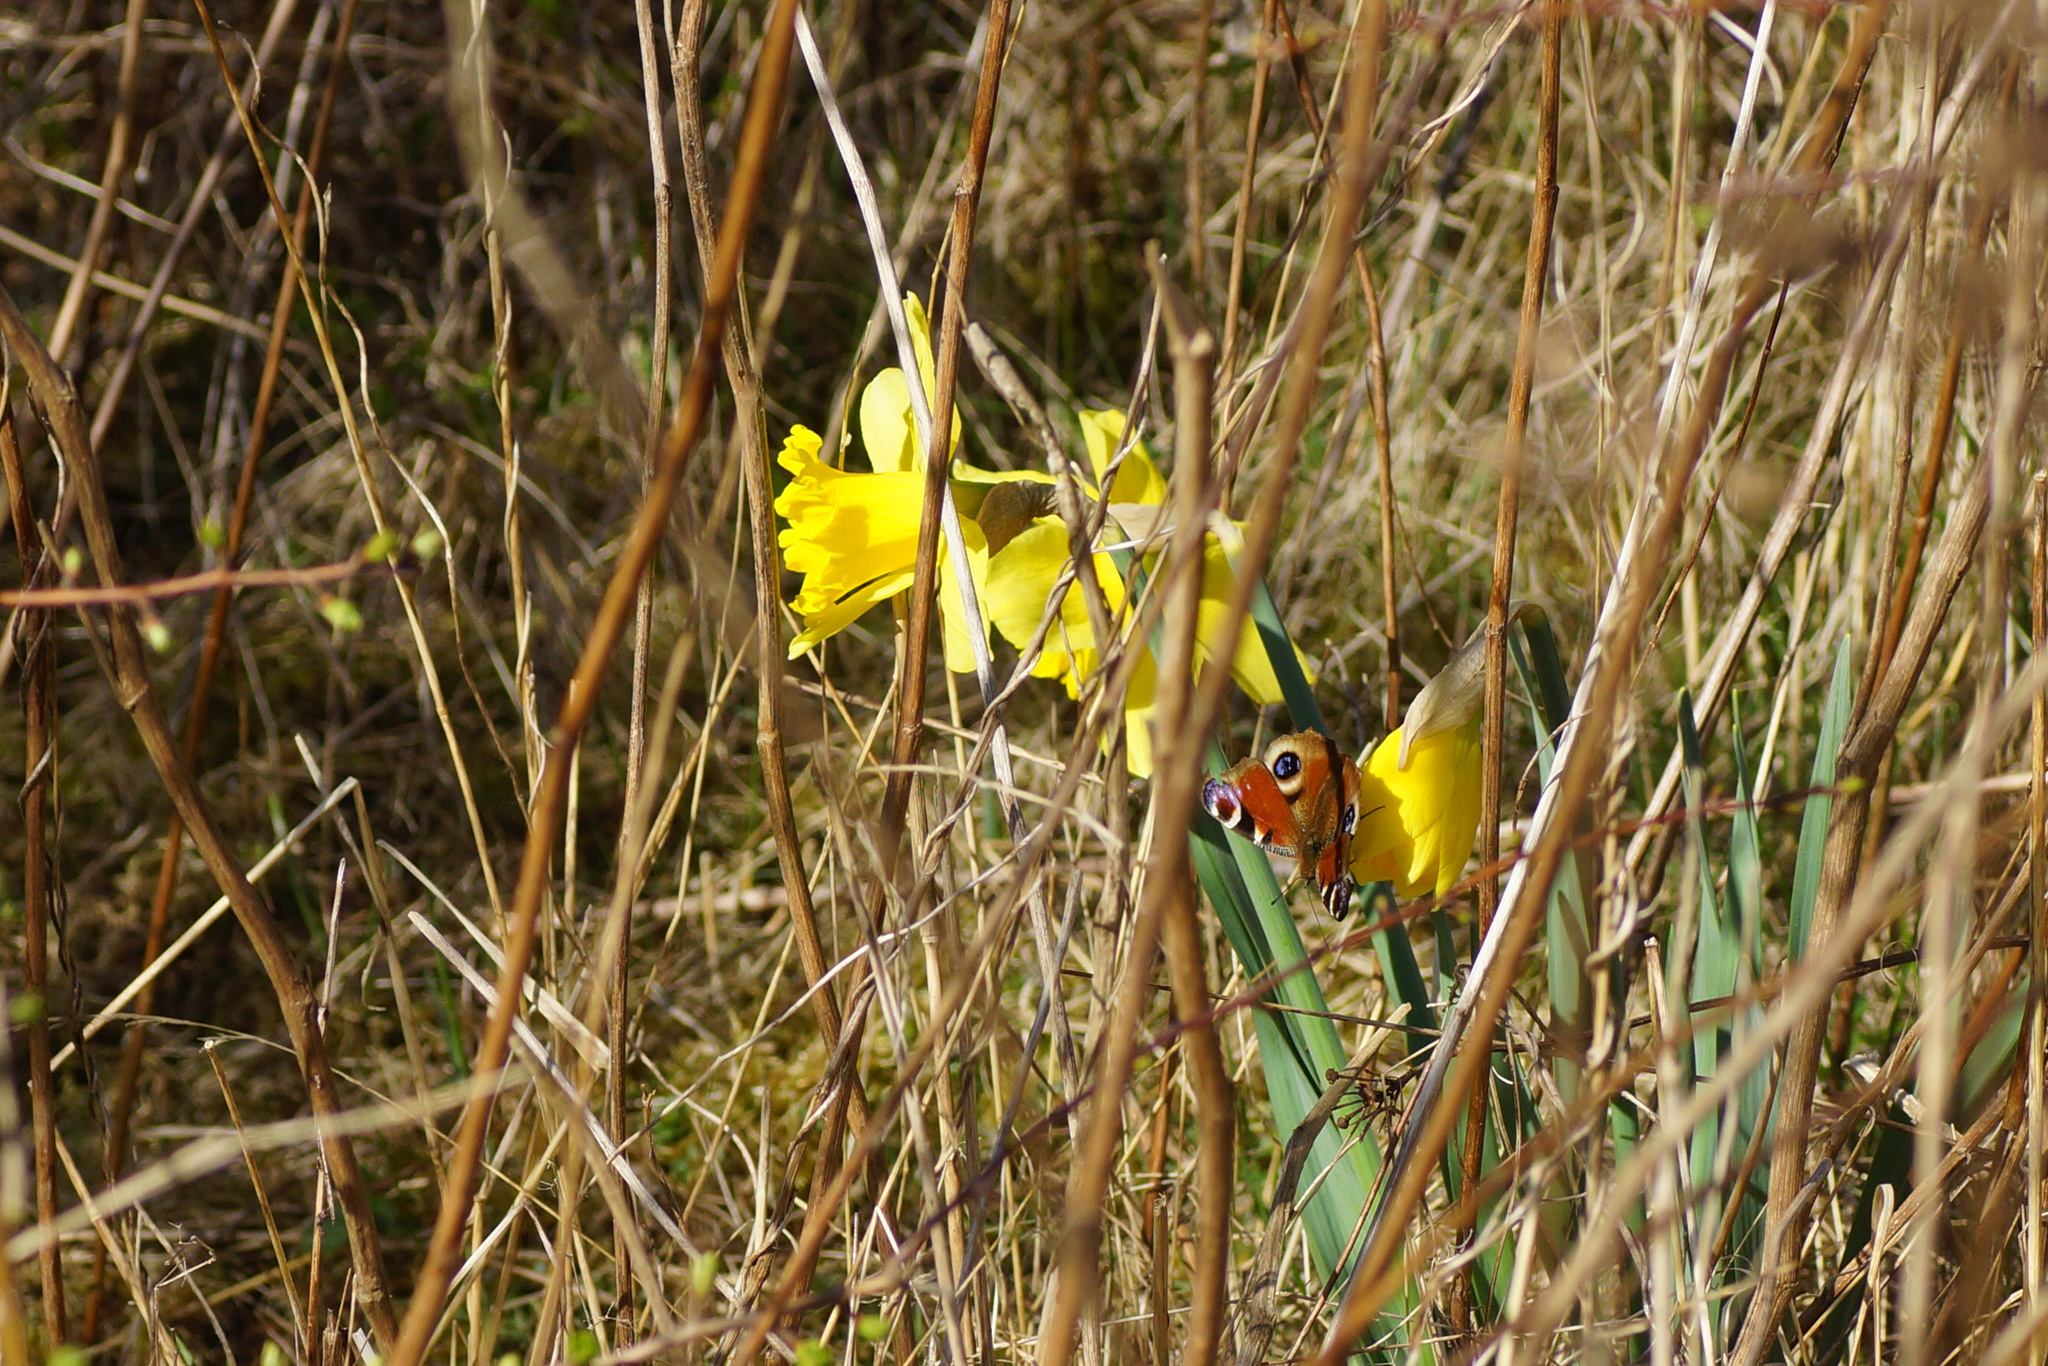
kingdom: Animalia
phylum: Arthropoda
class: Insecta
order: Lepidoptera
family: Nymphalidae
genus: Aglais
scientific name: Aglais io
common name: Peacock
